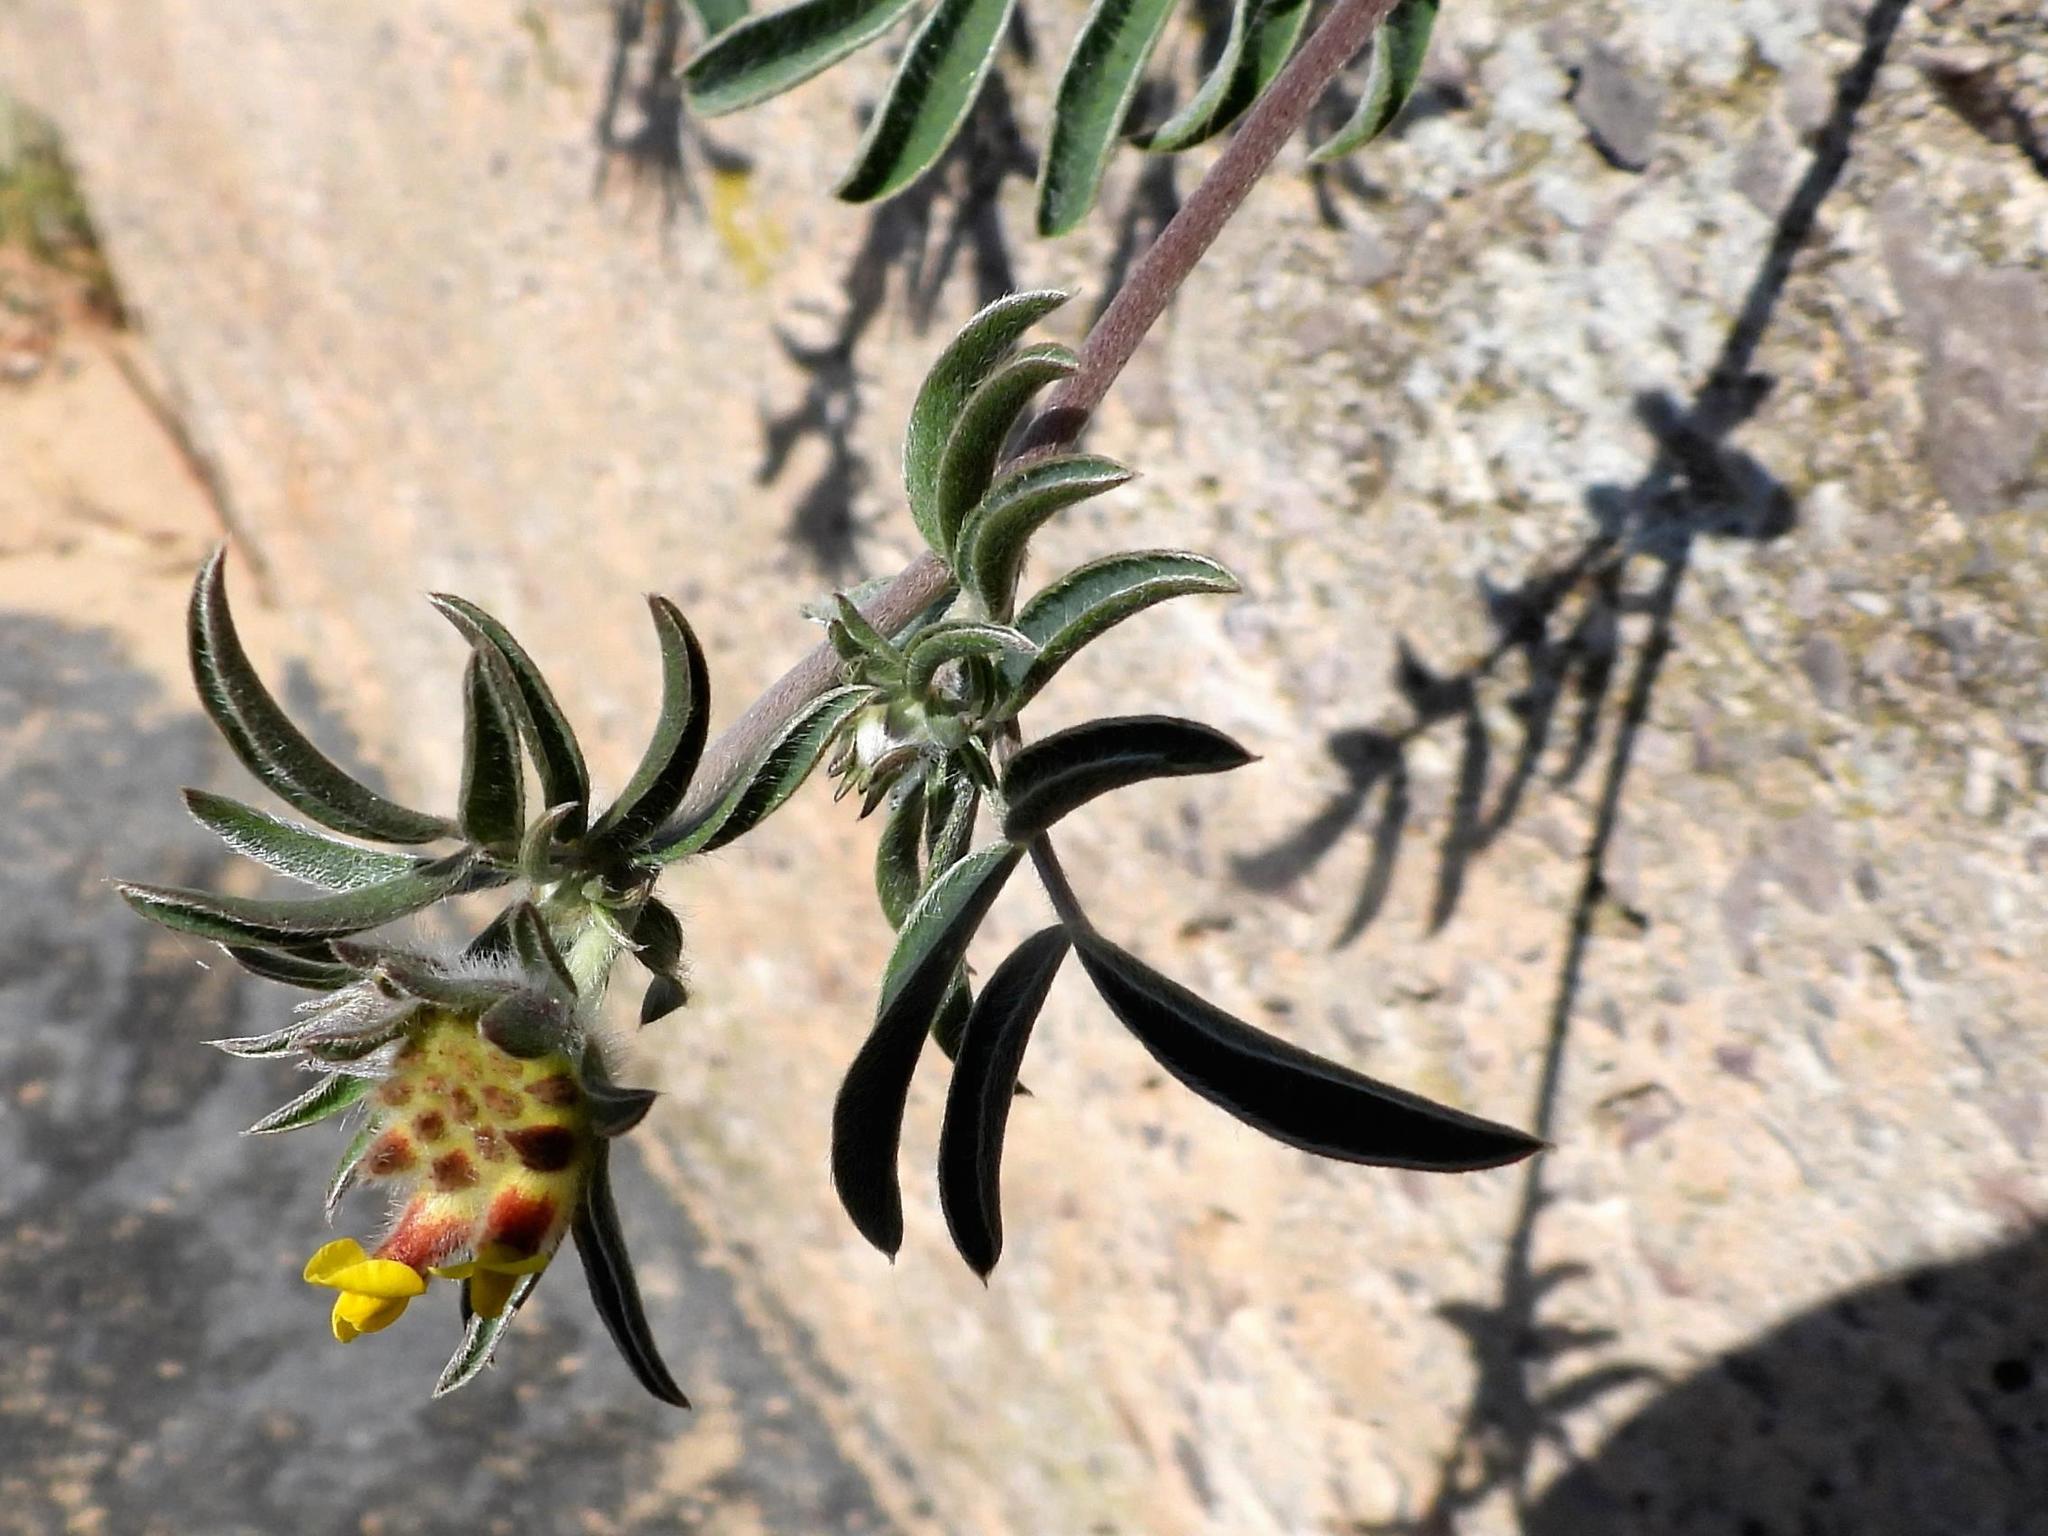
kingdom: Plantae
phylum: Tracheophyta
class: Magnoliopsida
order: Fabales
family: Fabaceae
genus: Anthyllis
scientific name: Anthyllis vulneraria
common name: Kidney vetch
